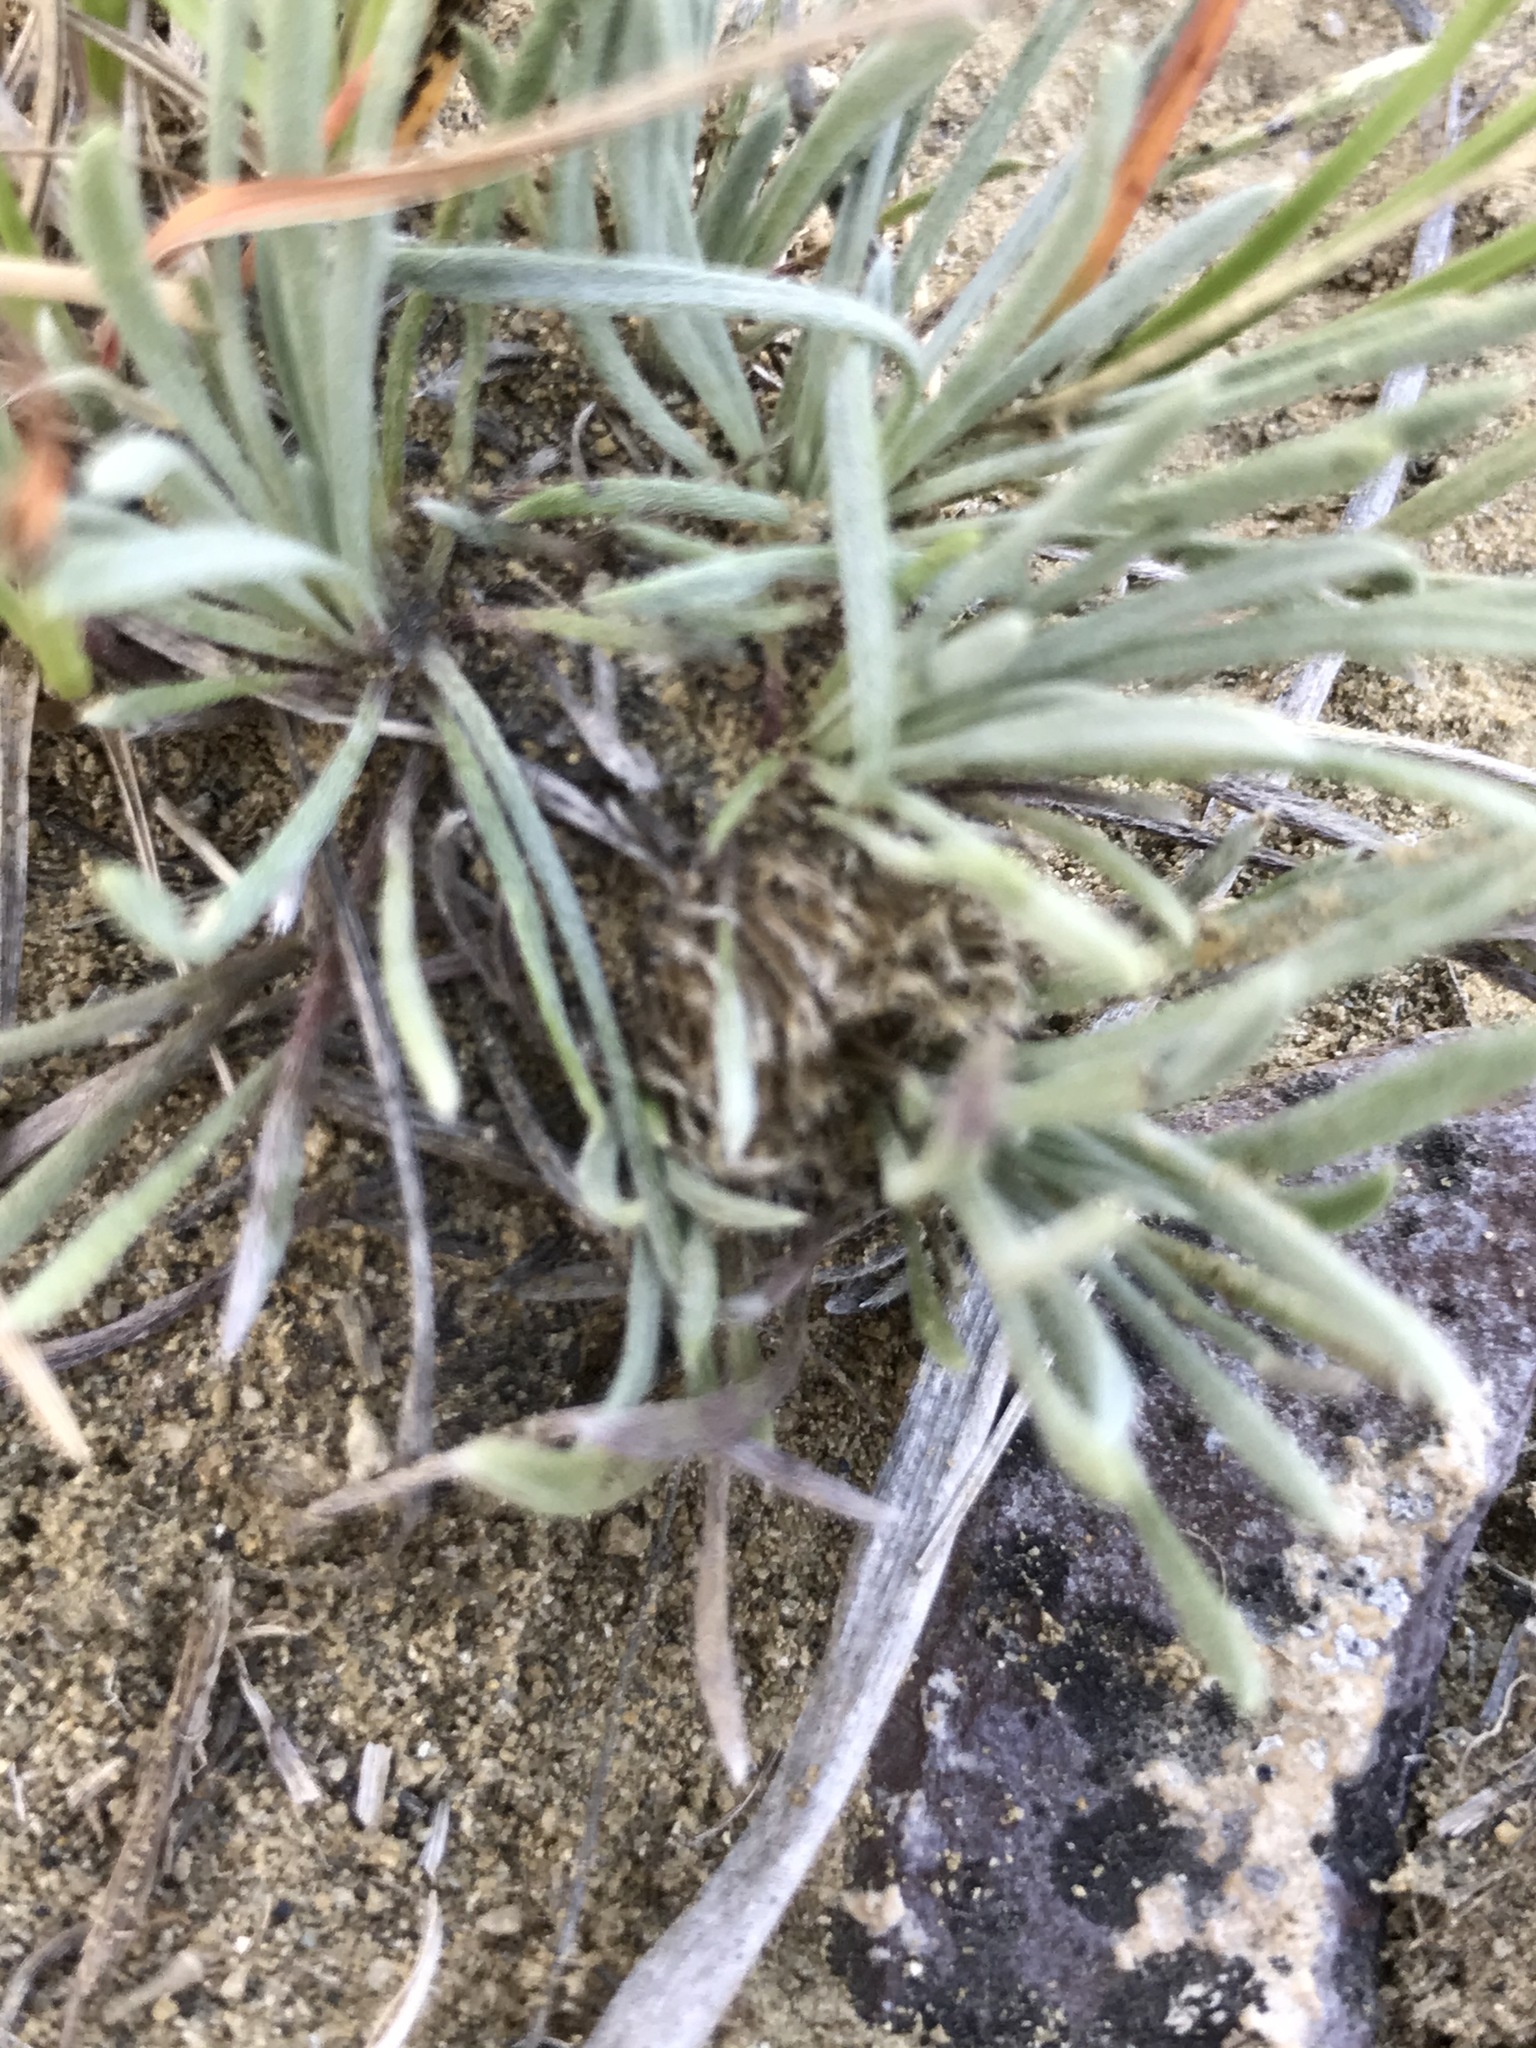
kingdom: Plantae
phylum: Tracheophyta
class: Magnoliopsida
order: Asterales
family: Asteraceae
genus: Townsendia
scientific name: Townsendia hookeri
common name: Hooker's townsend daisy
